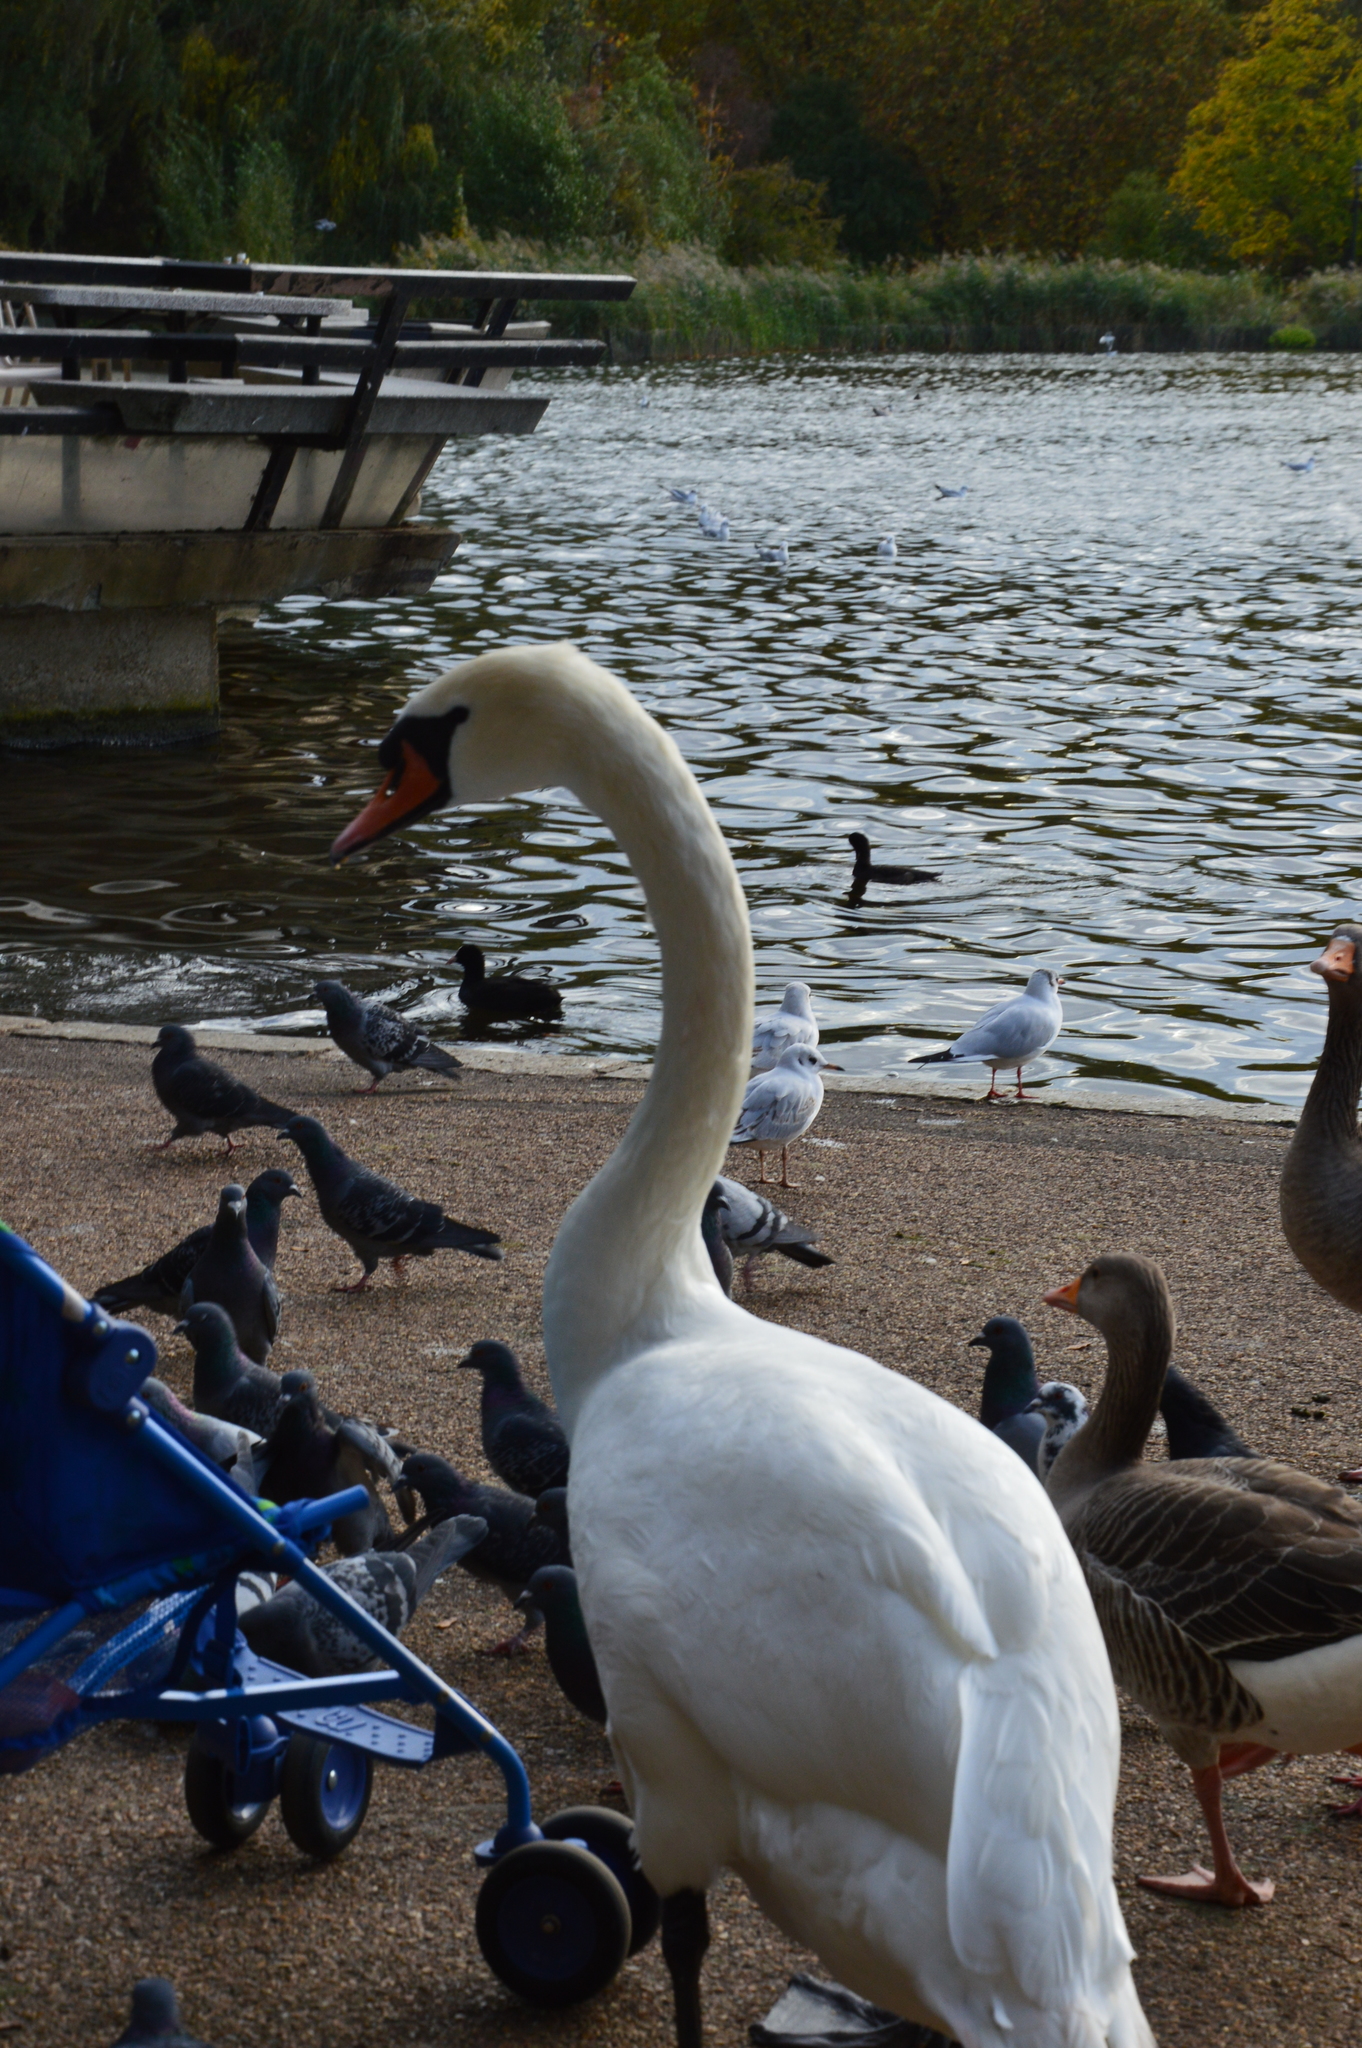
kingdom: Animalia
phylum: Chordata
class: Aves
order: Anseriformes
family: Anatidae
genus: Cygnus
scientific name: Cygnus olor
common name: Mute swan
